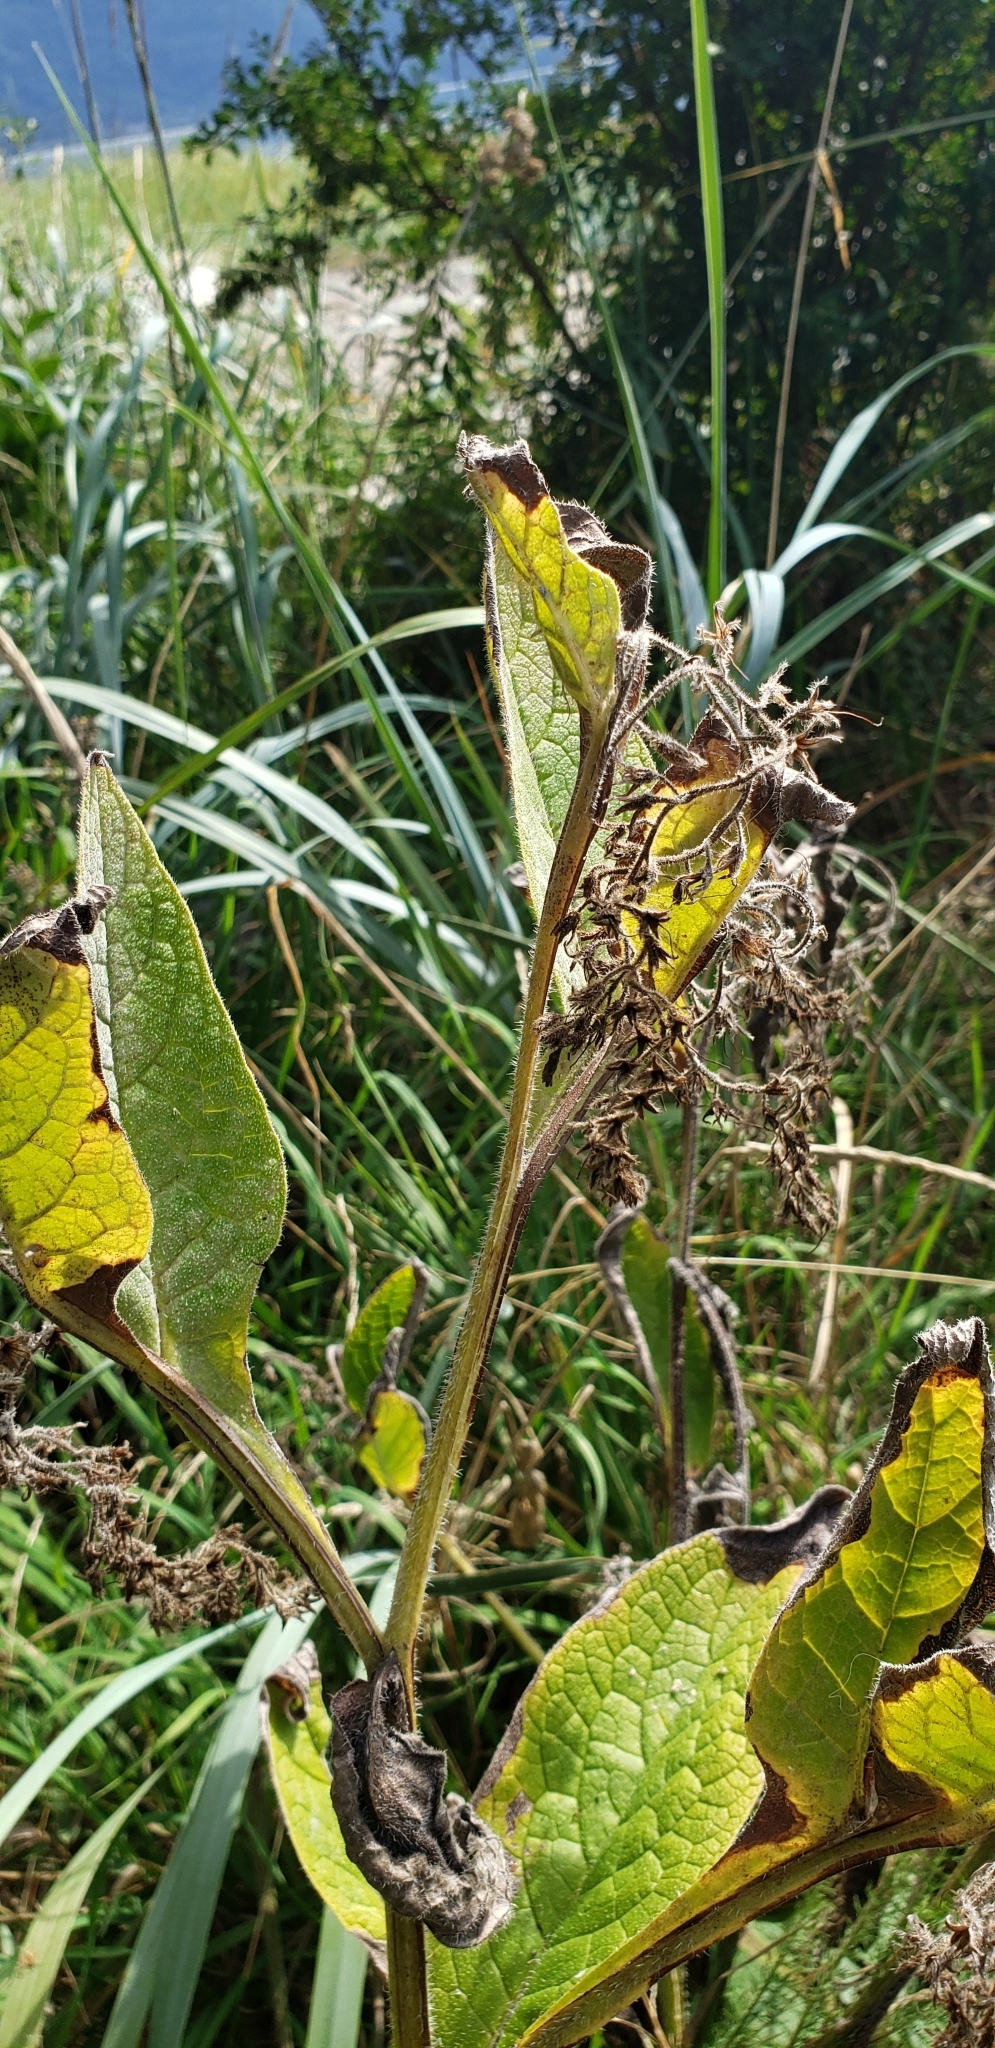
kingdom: Plantae
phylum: Tracheophyta
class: Magnoliopsida
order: Boraginales
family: Boraginaceae
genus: Symphytum
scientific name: Symphytum officinale
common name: Common comfrey
